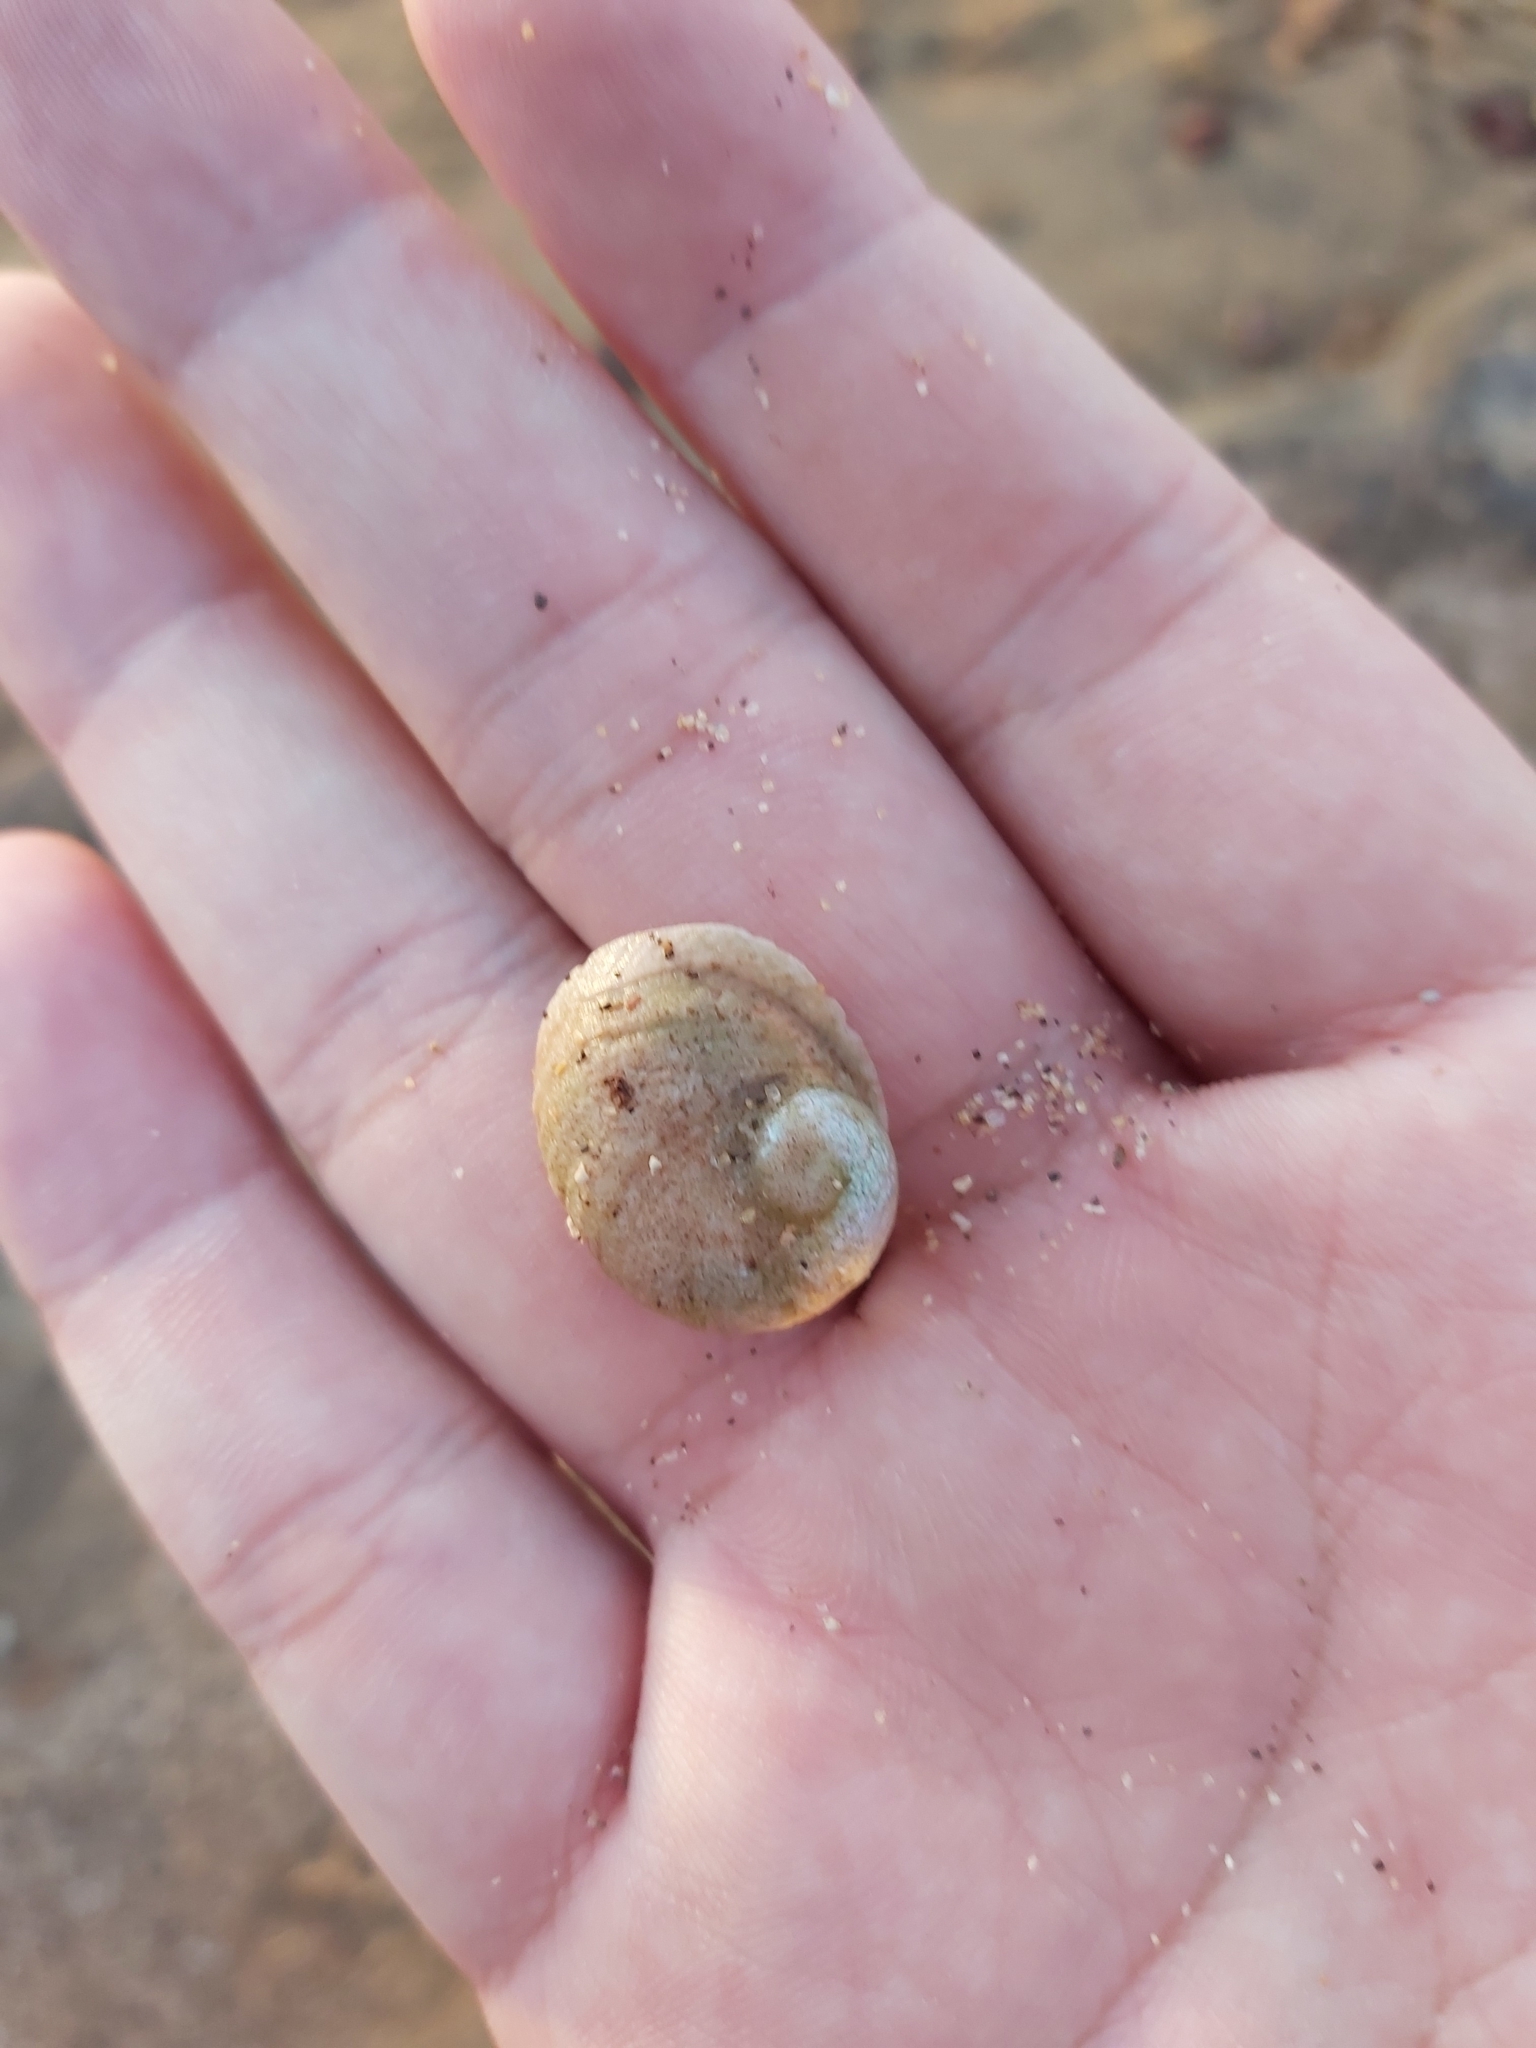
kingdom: Animalia
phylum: Mollusca
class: Gastropoda
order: Seguenziida
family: Chilodontaidae
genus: Granata
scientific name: Granata imbricata
